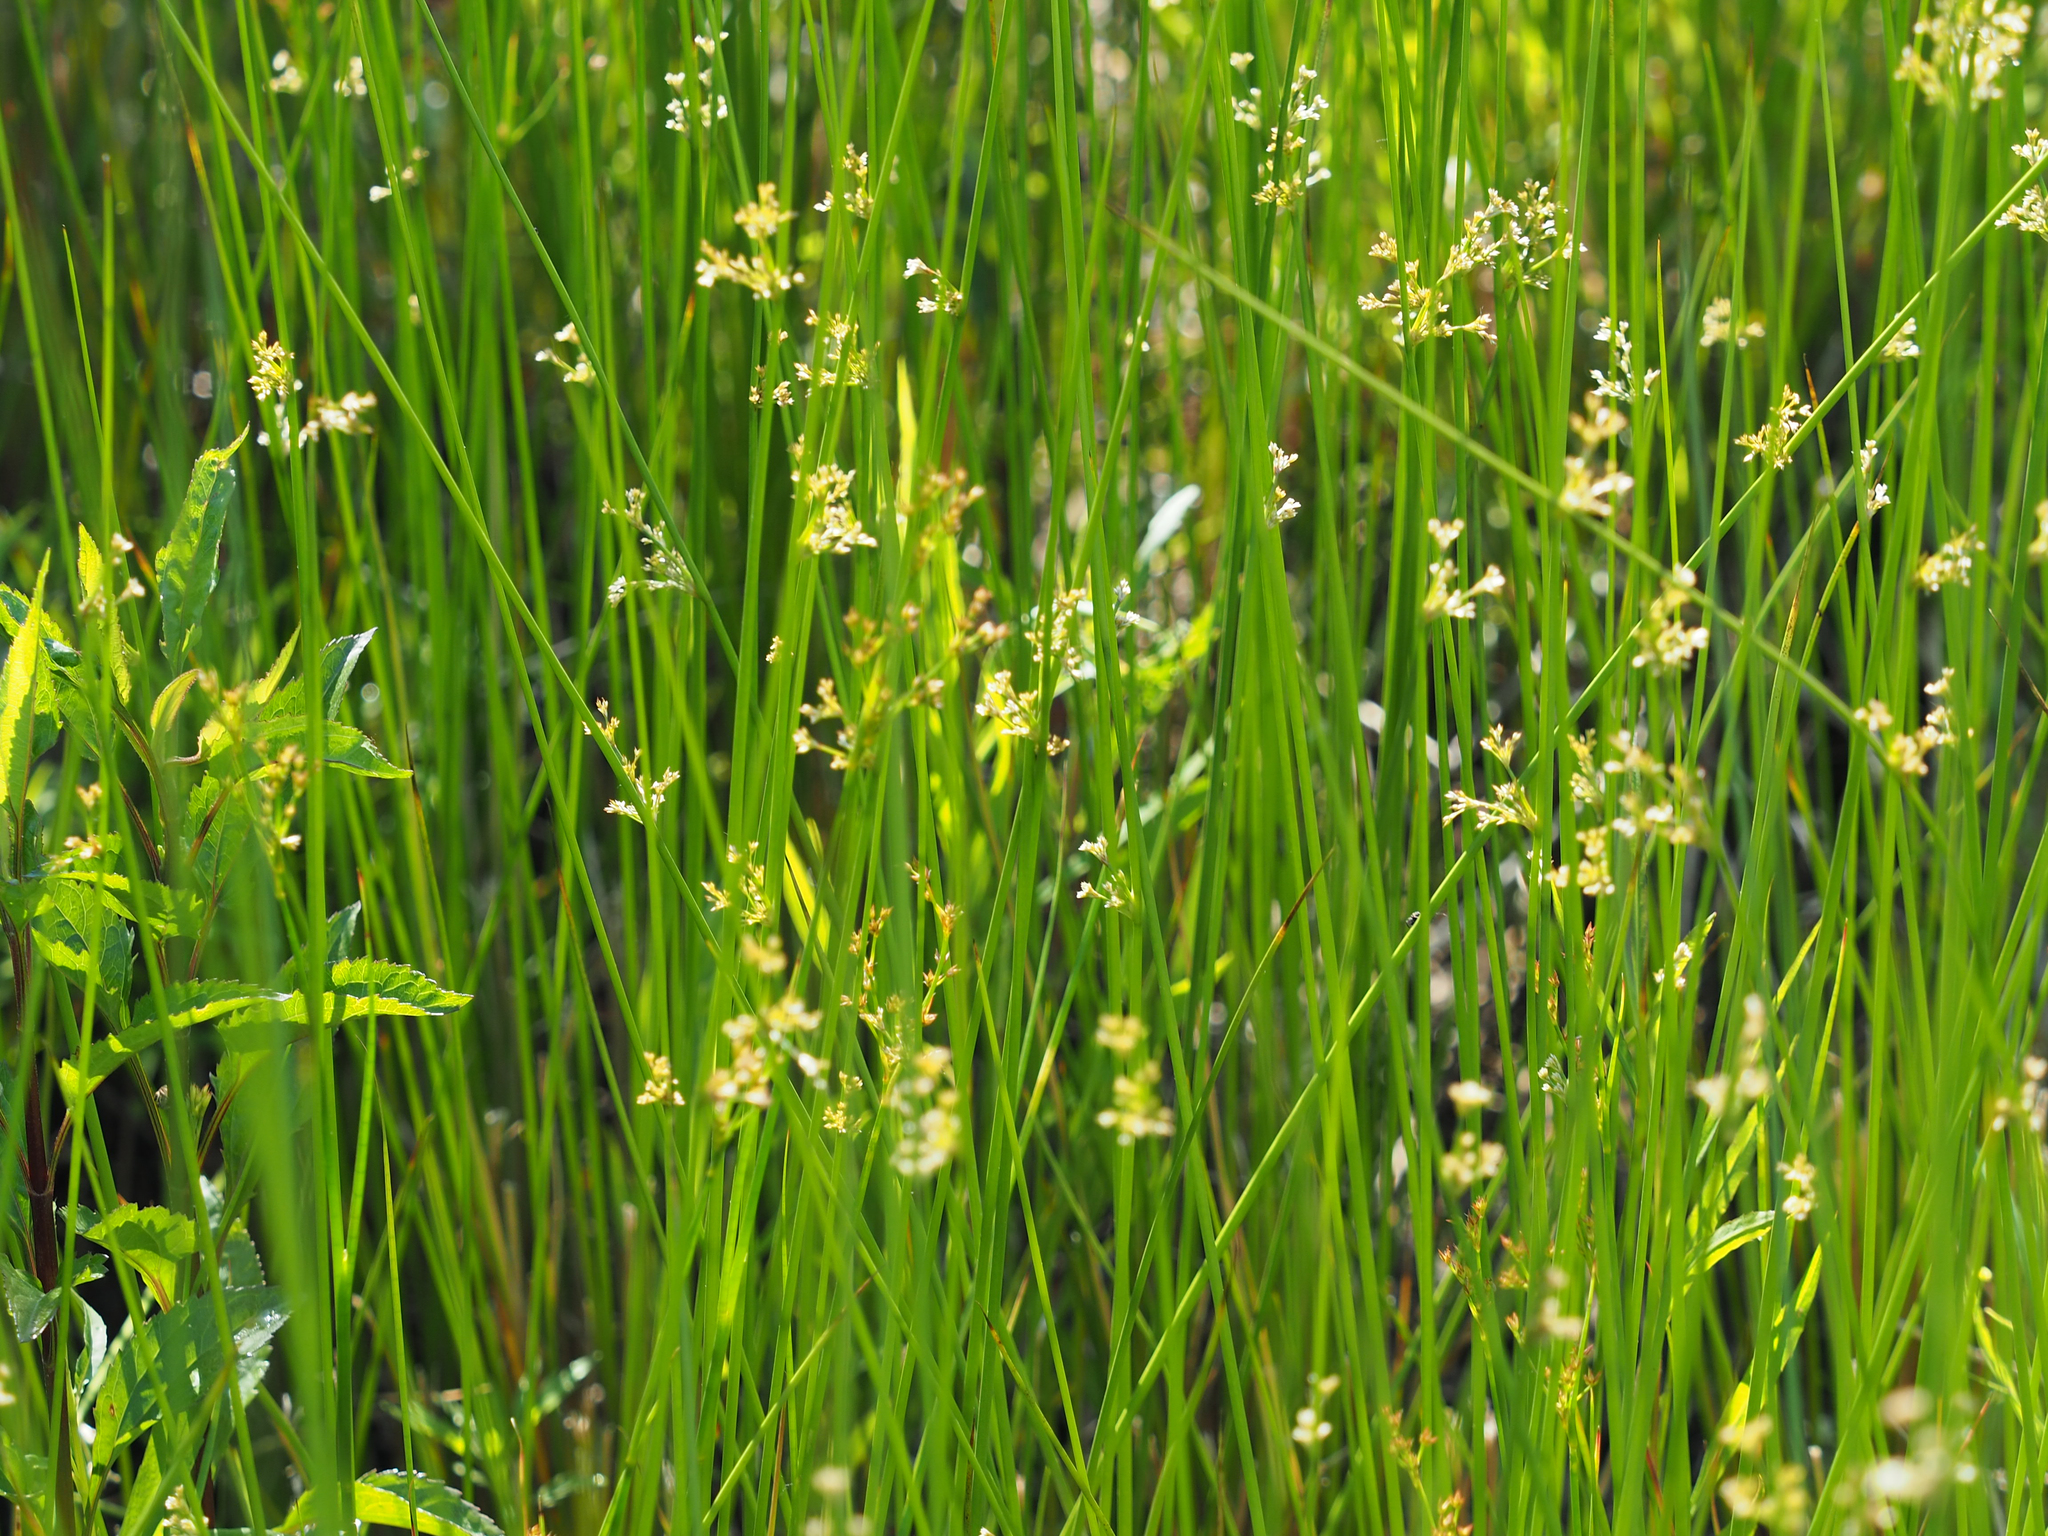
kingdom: Plantae
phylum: Tracheophyta
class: Liliopsida
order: Poales
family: Juncaceae
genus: Juncus
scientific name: Juncus effusus
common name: Soft rush
